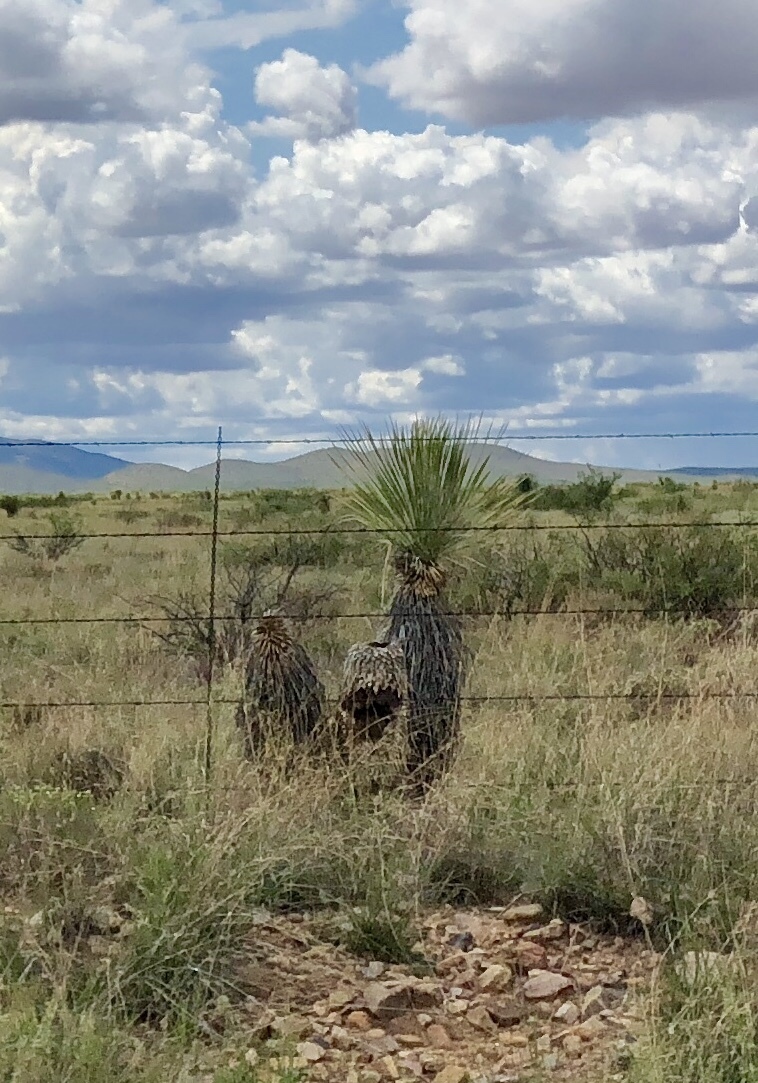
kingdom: Plantae
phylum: Tracheophyta
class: Liliopsida
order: Asparagales
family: Asparagaceae
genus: Yucca
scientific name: Yucca elata
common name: Palmella
